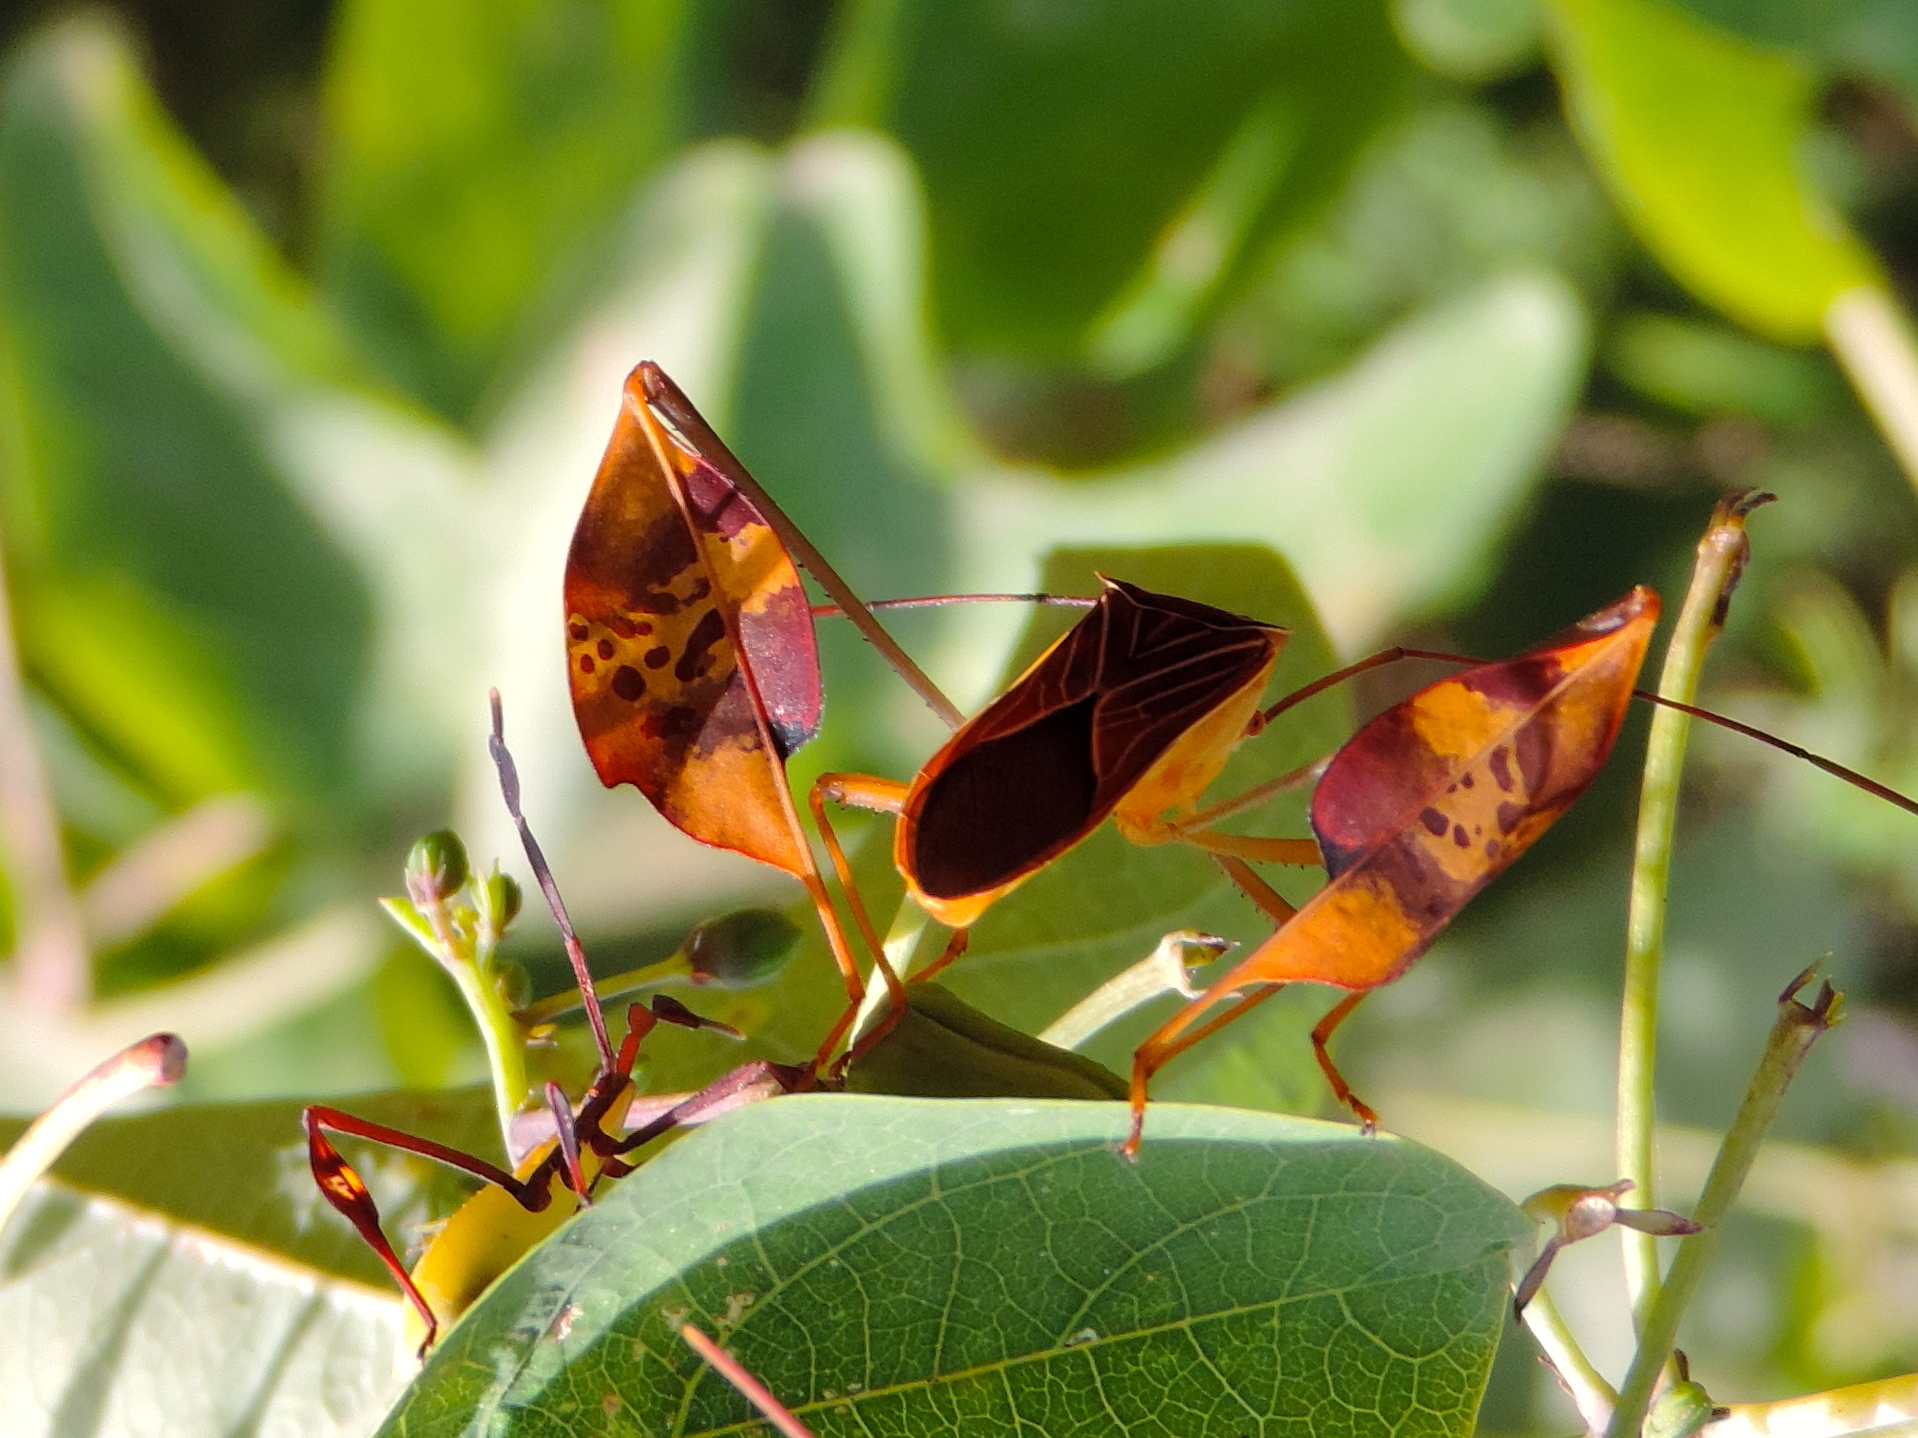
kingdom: Animalia
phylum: Arthropoda
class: Insecta
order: Hemiptera
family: Coreidae
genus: Bitta
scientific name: Bitta
